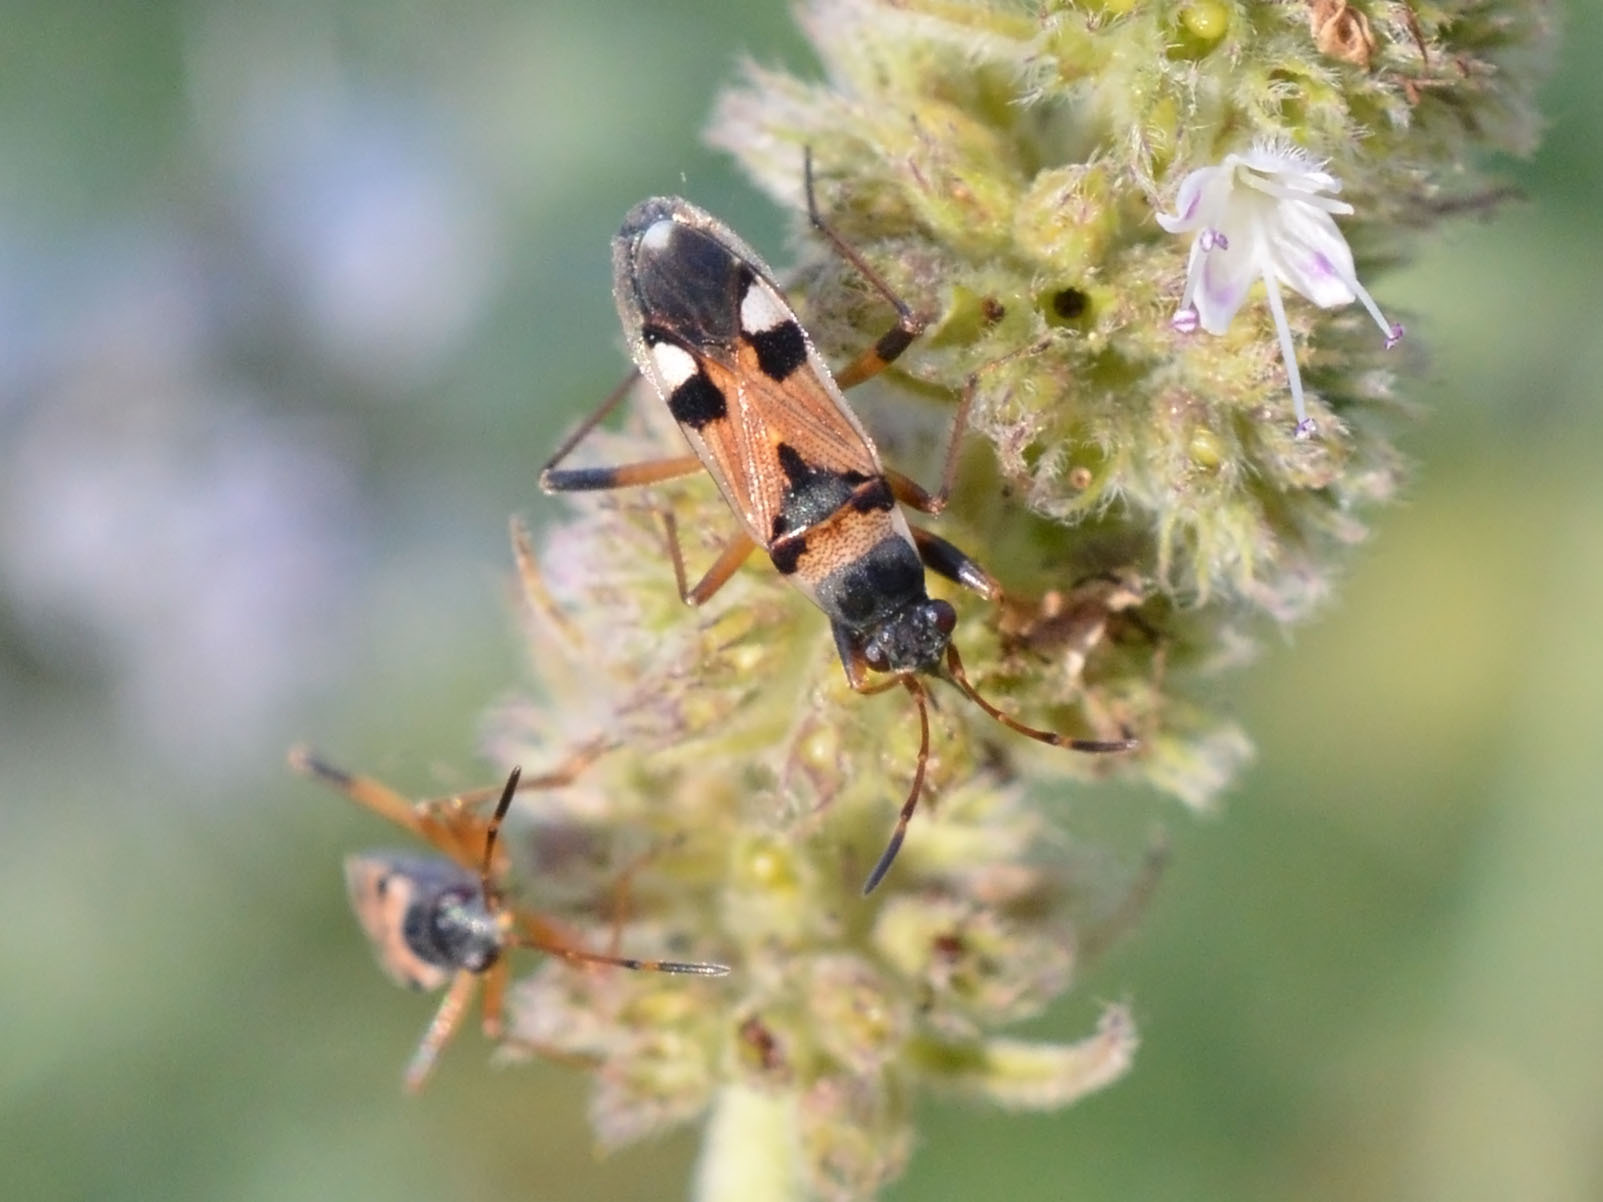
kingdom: Animalia
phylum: Arthropoda
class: Insecta
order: Hemiptera
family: Rhyparochromidae
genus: Beosus
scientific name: Beosus quadripunctatus
